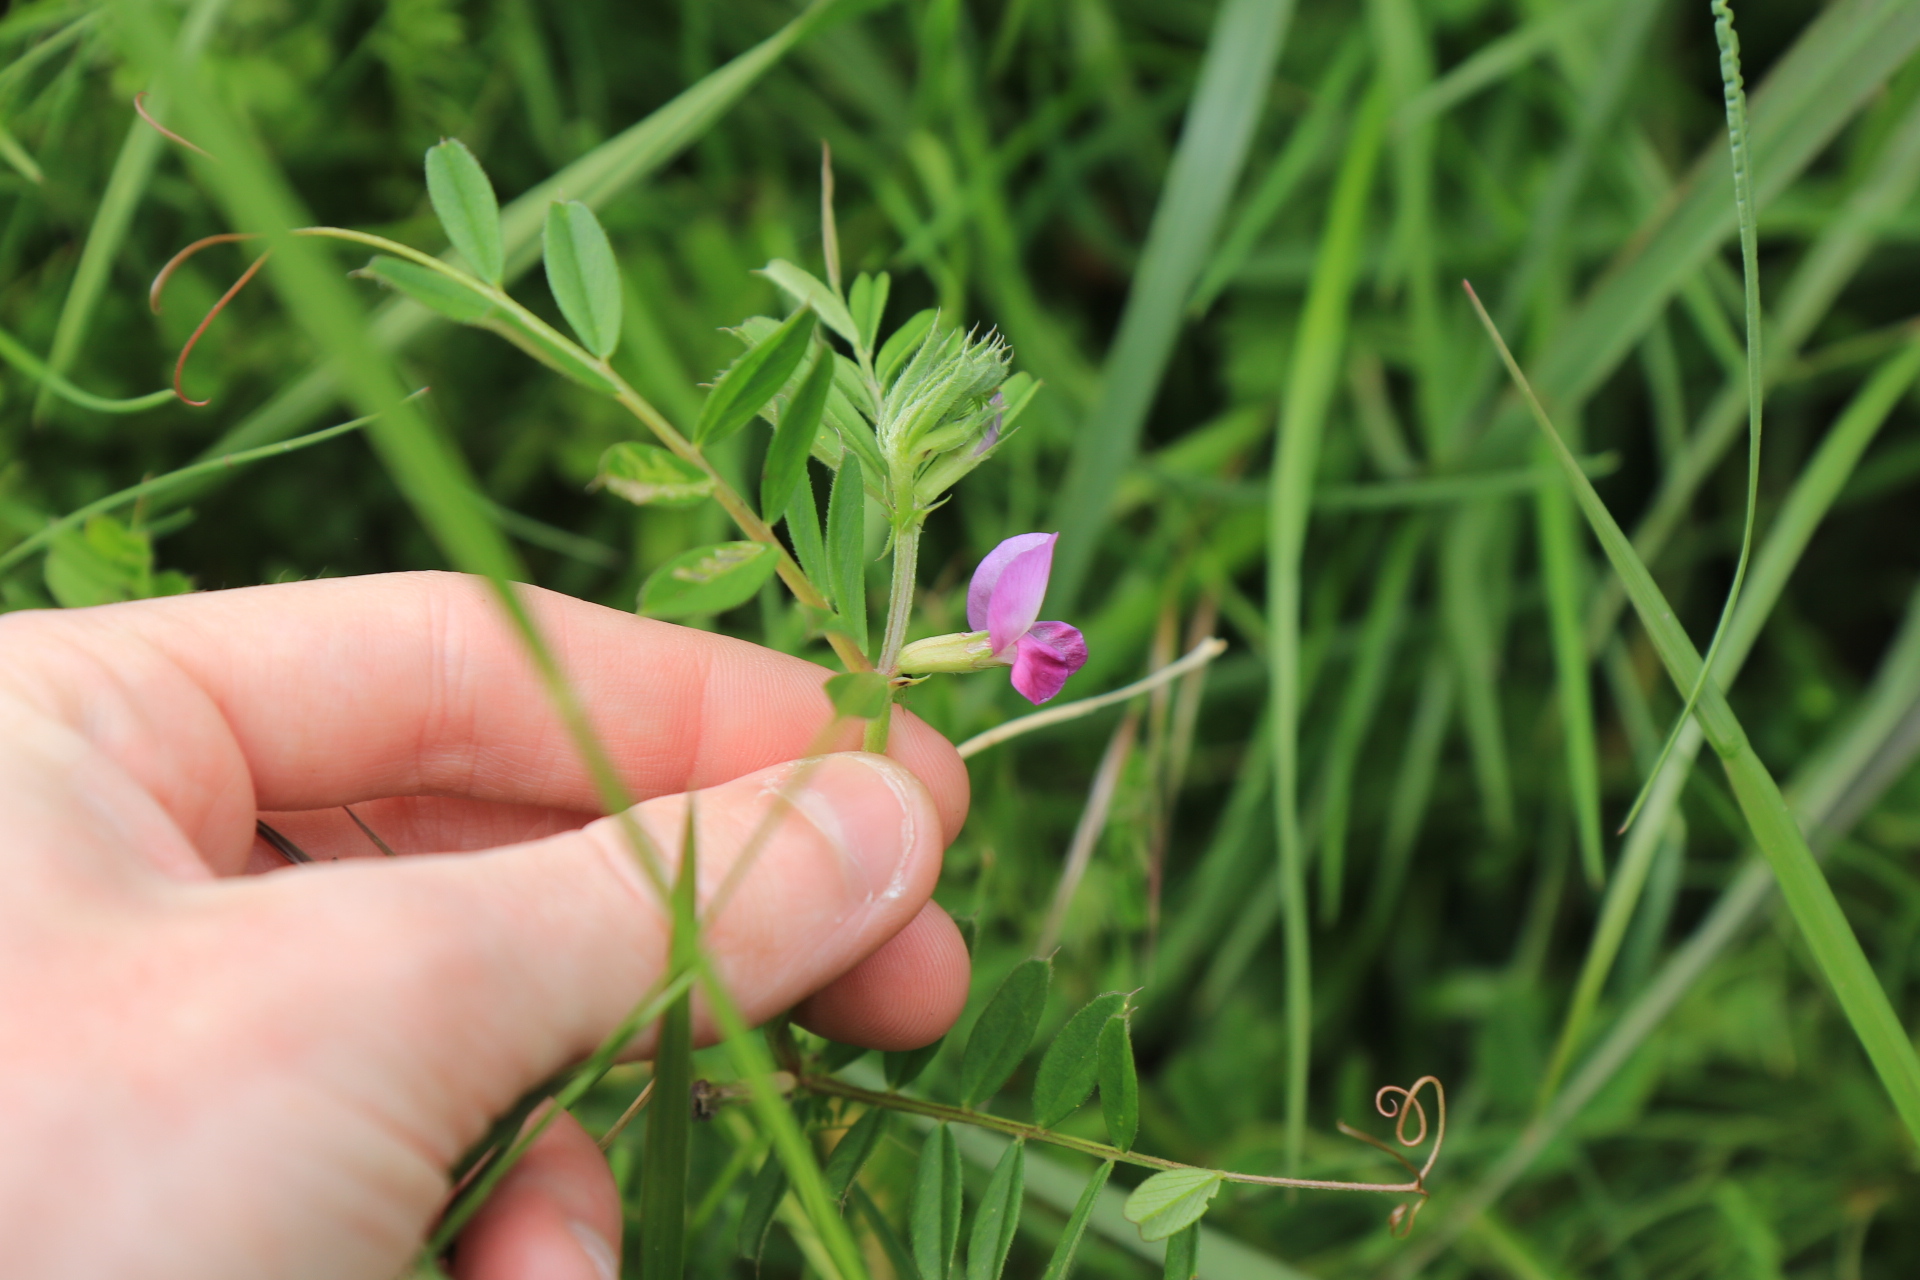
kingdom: Plantae
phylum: Tracheophyta
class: Magnoliopsida
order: Fabales
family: Fabaceae
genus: Vicia
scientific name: Vicia sativa
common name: Garden vetch
